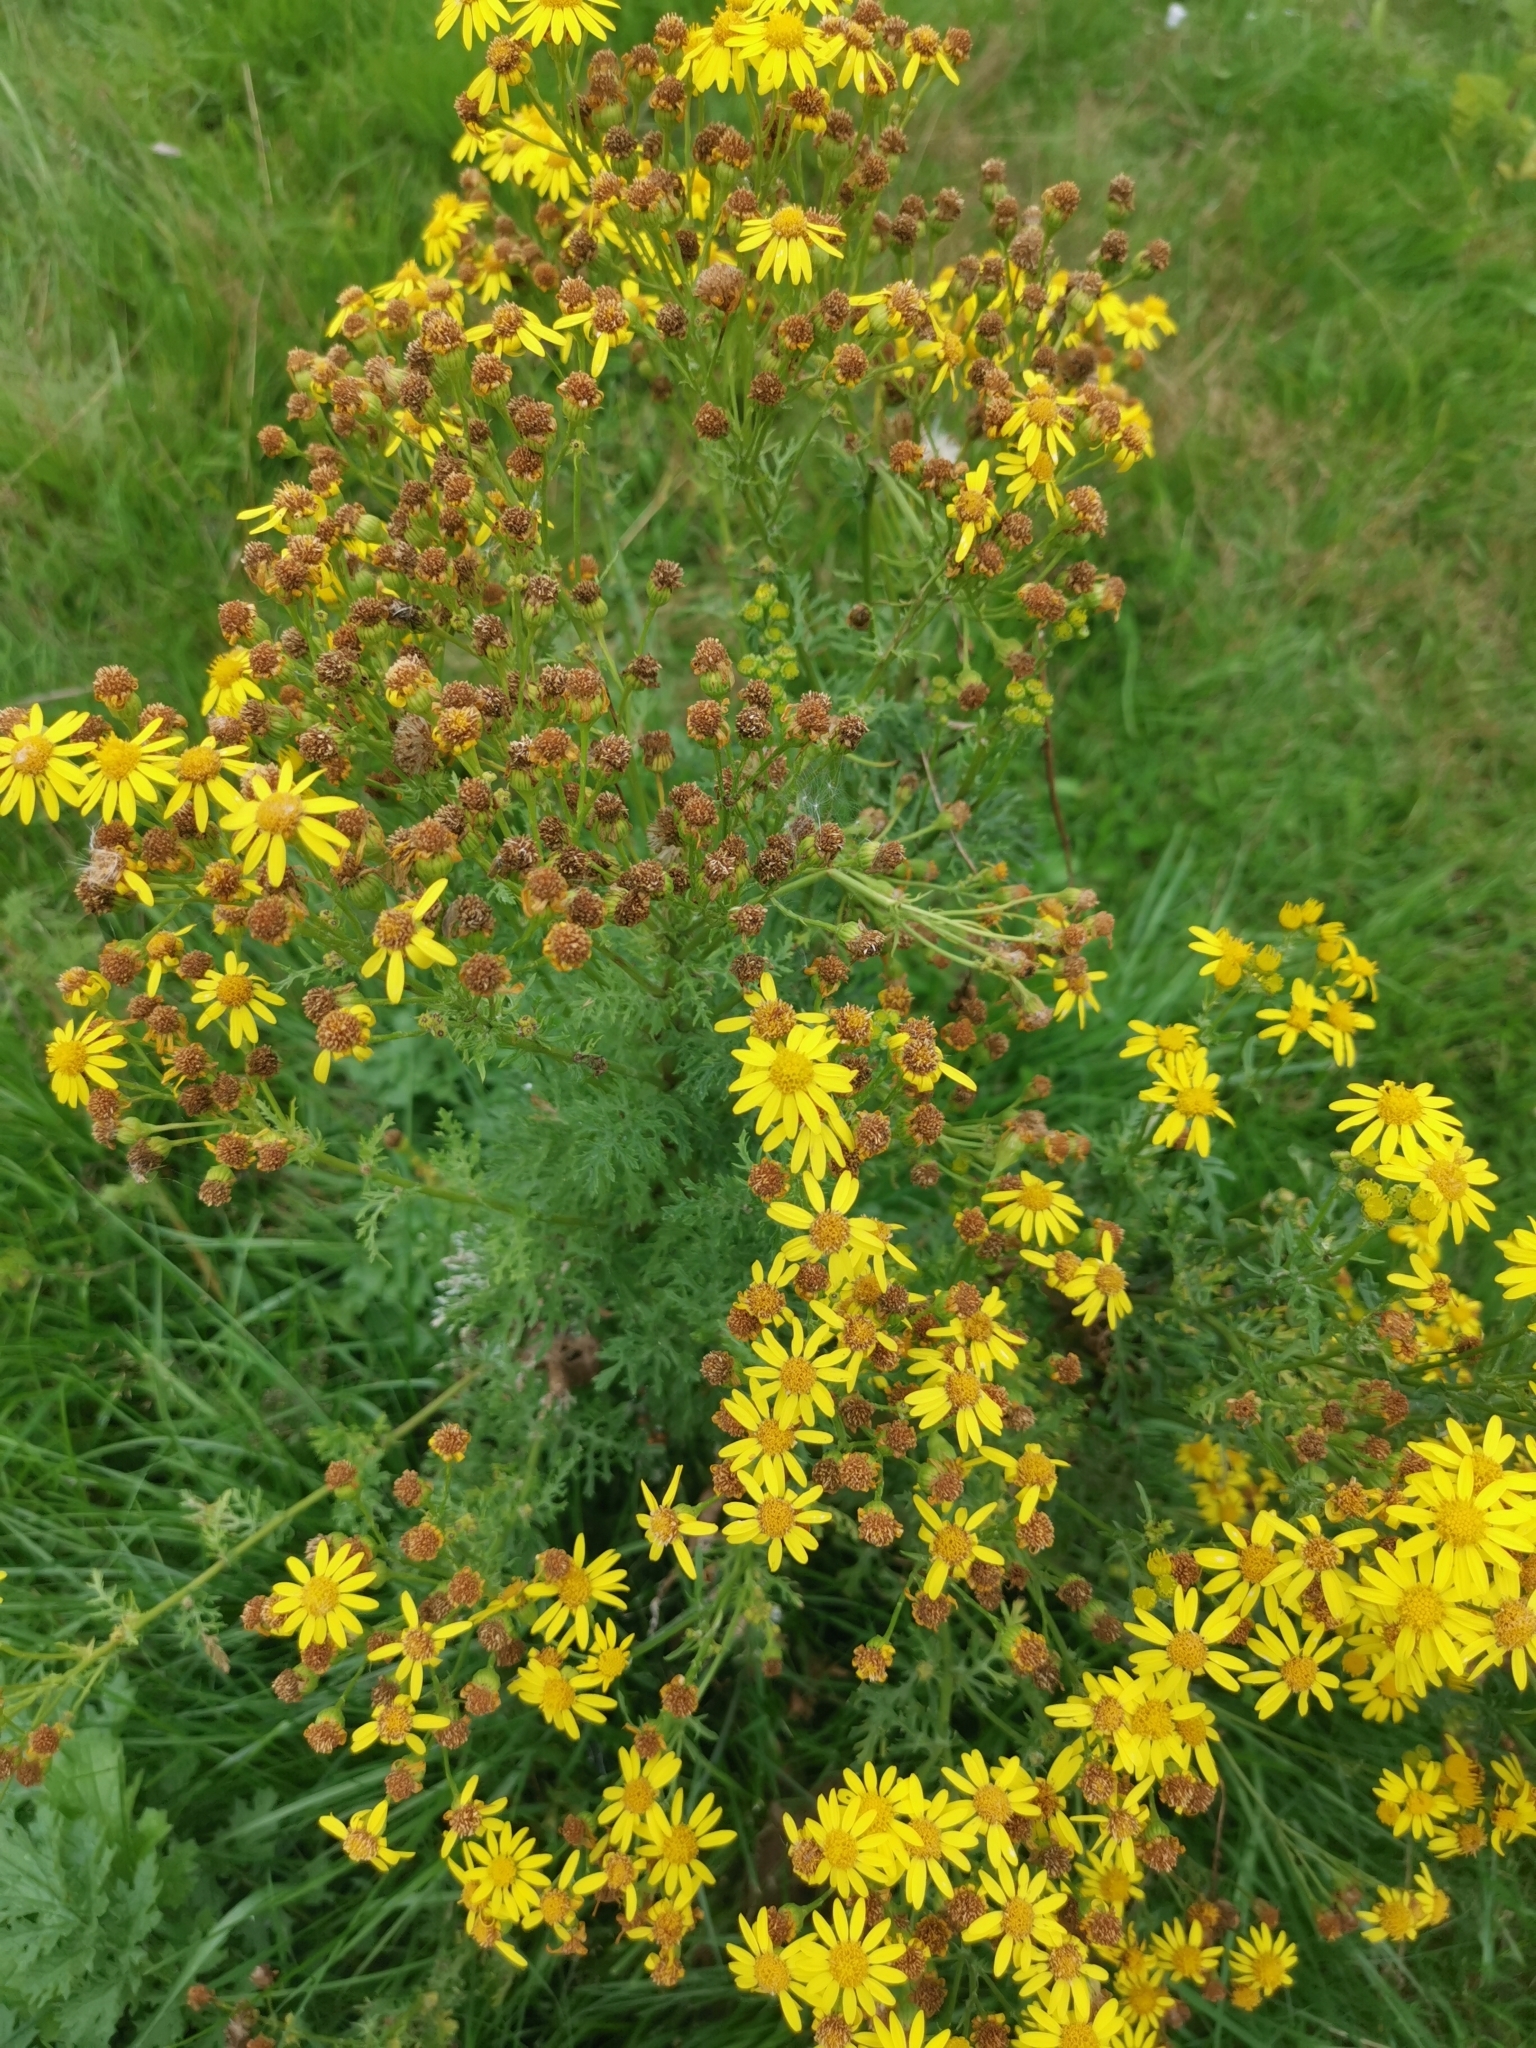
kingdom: Plantae
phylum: Tracheophyta
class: Magnoliopsida
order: Asterales
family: Asteraceae
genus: Jacobaea
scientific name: Jacobaea vulgaris
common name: Stinking willie
